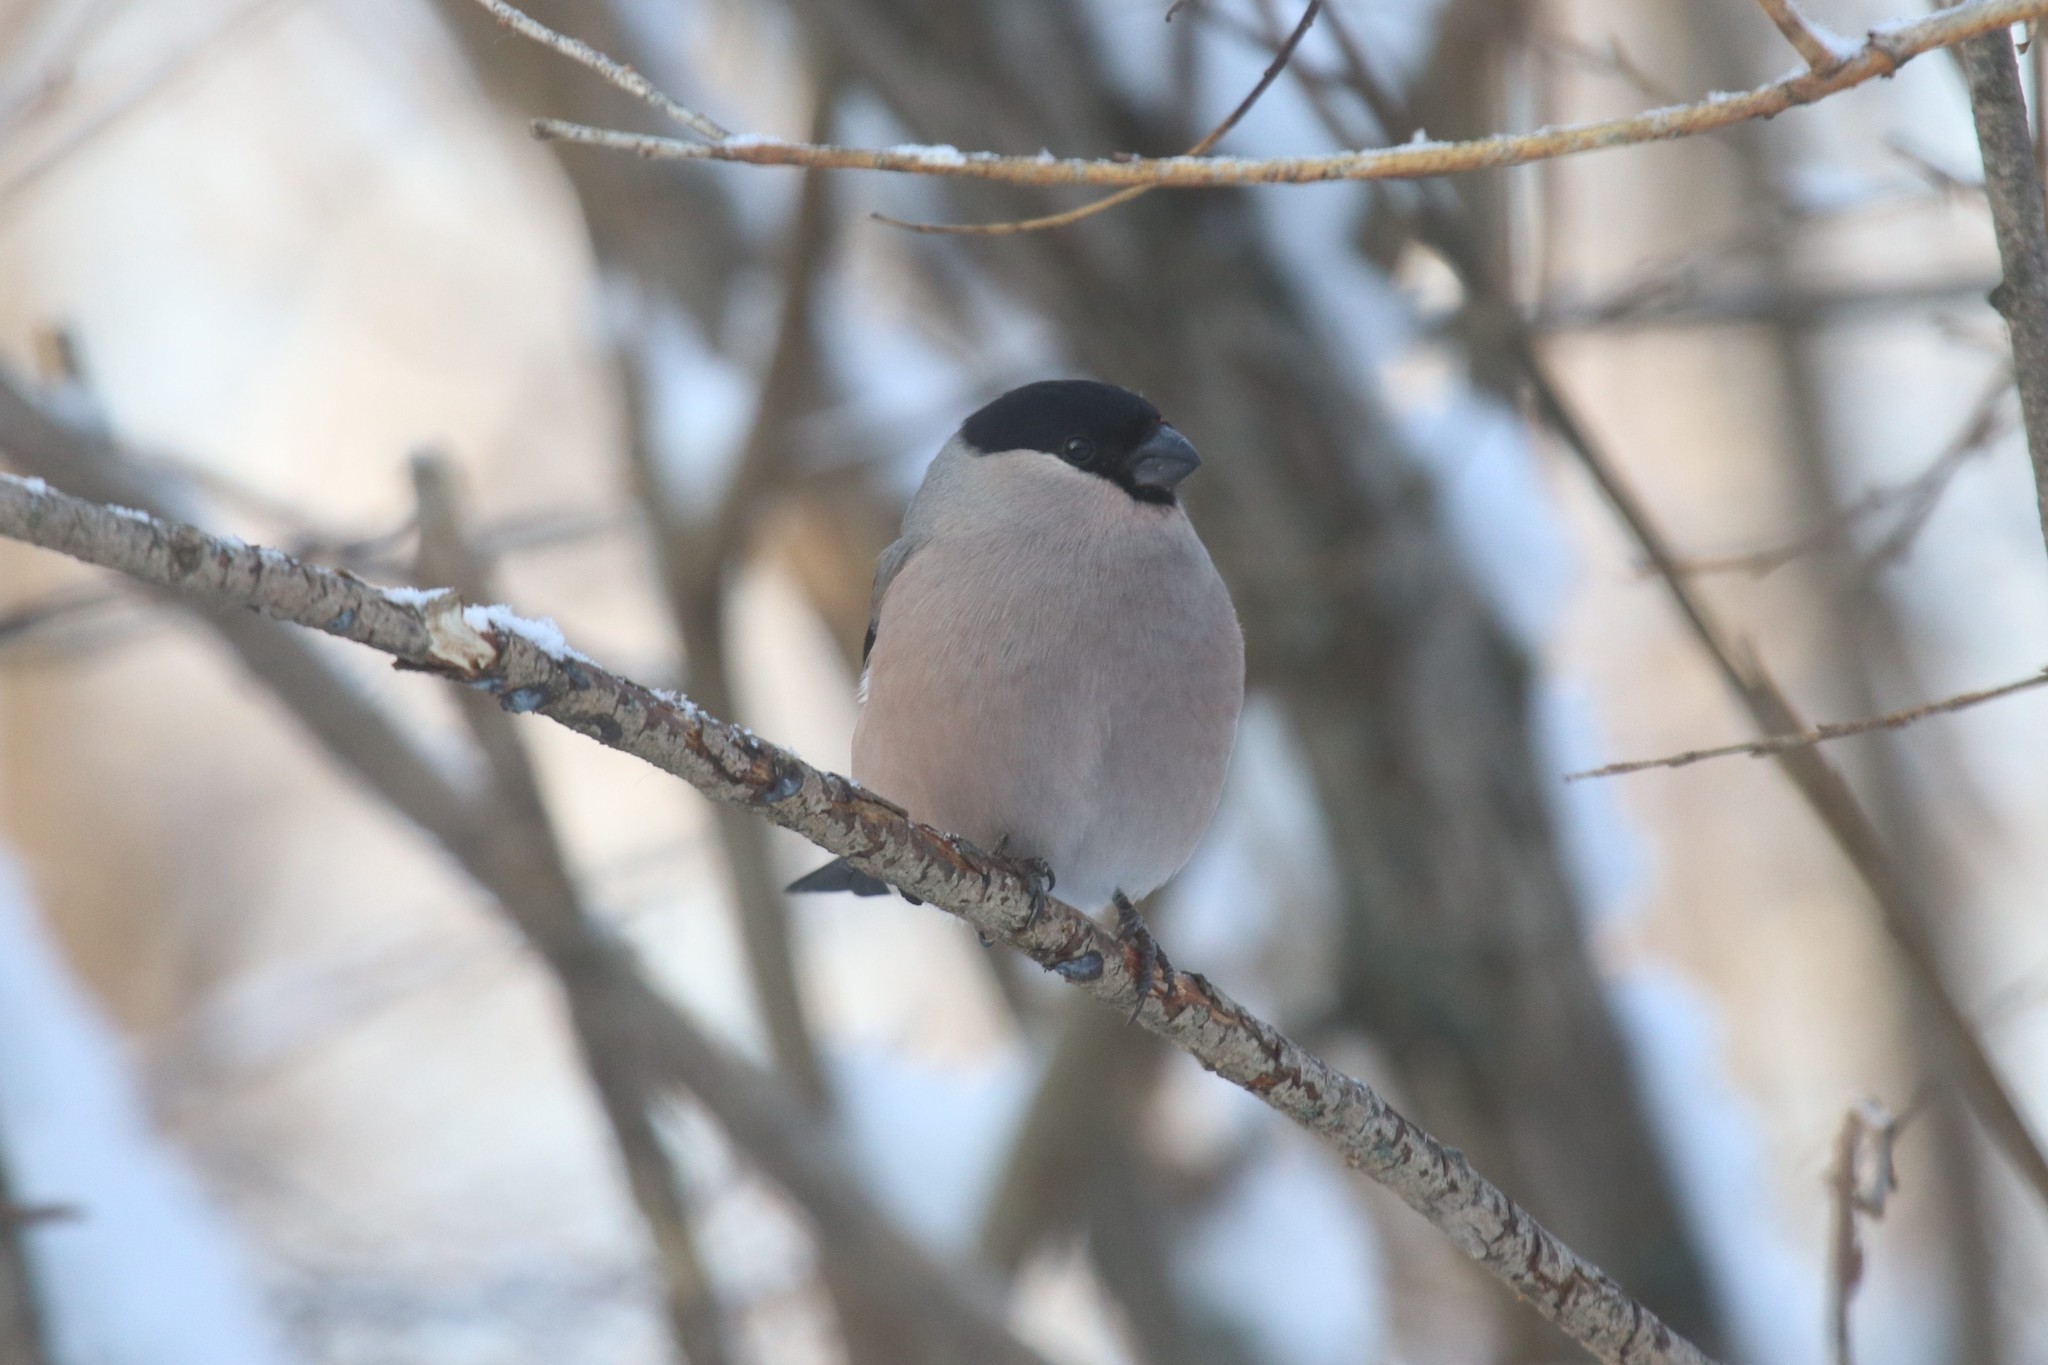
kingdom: Animalia
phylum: Chordata
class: Aves
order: Passeriformes
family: Fringillidae
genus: Pyrrhula
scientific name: Pyrrhula pyrrhula
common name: Eurasian bullfinch
